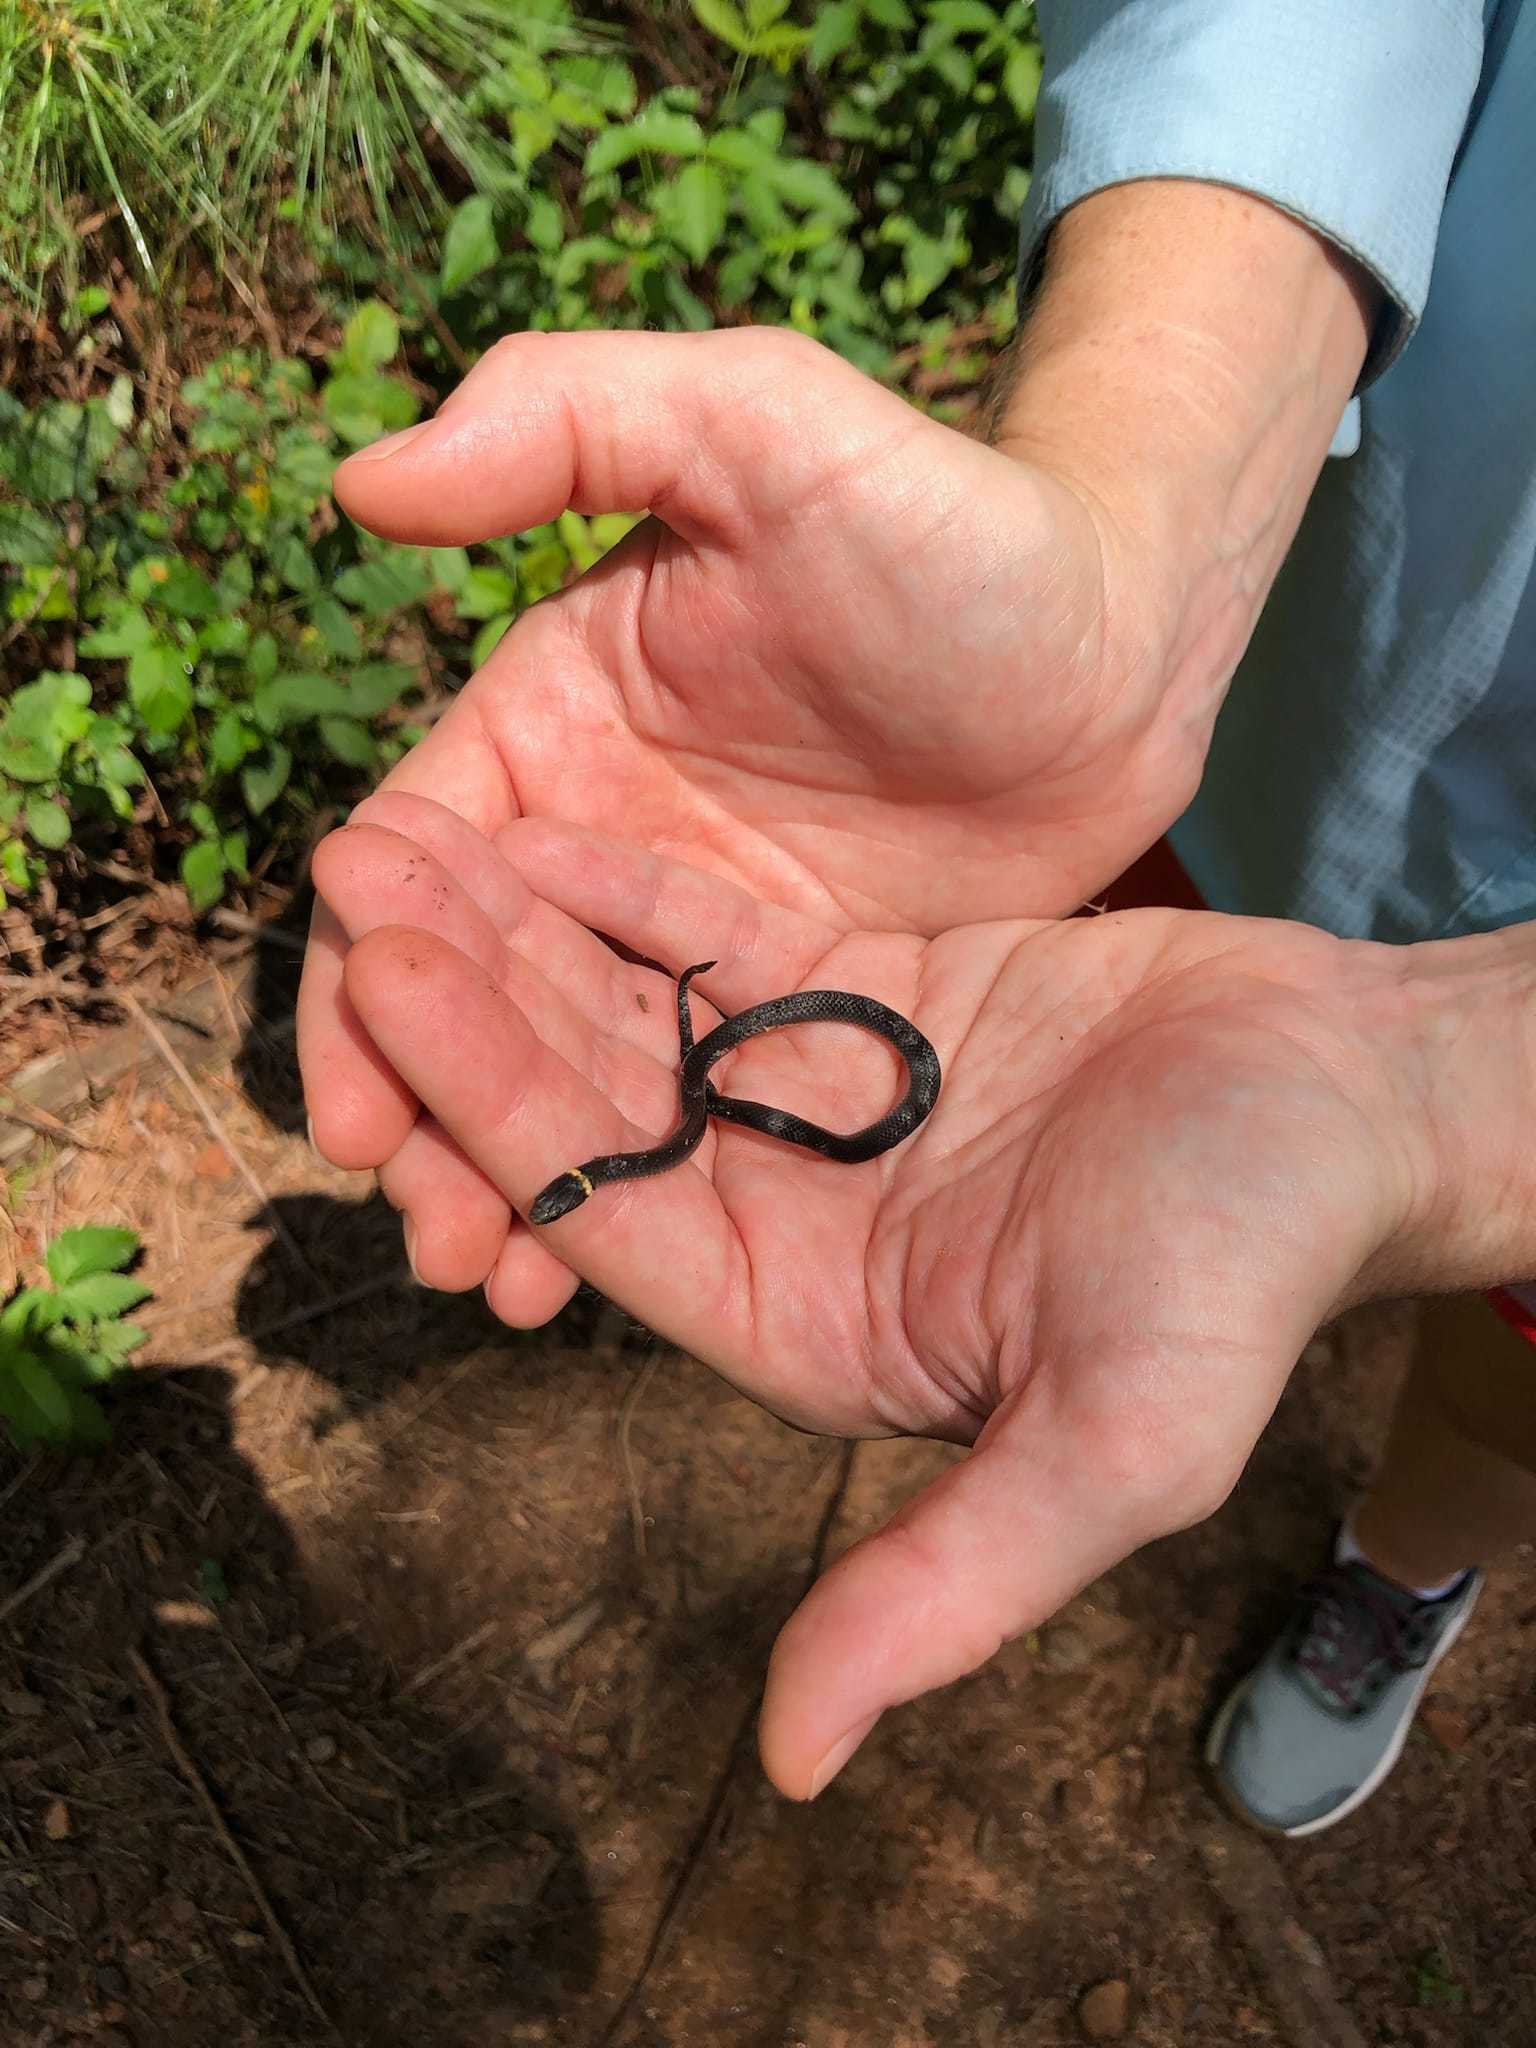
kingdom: Animalia
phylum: Chordata
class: Squamata
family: Colubridae
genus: Diadophis
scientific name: Diadophis punctatus
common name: Ringneck snake
